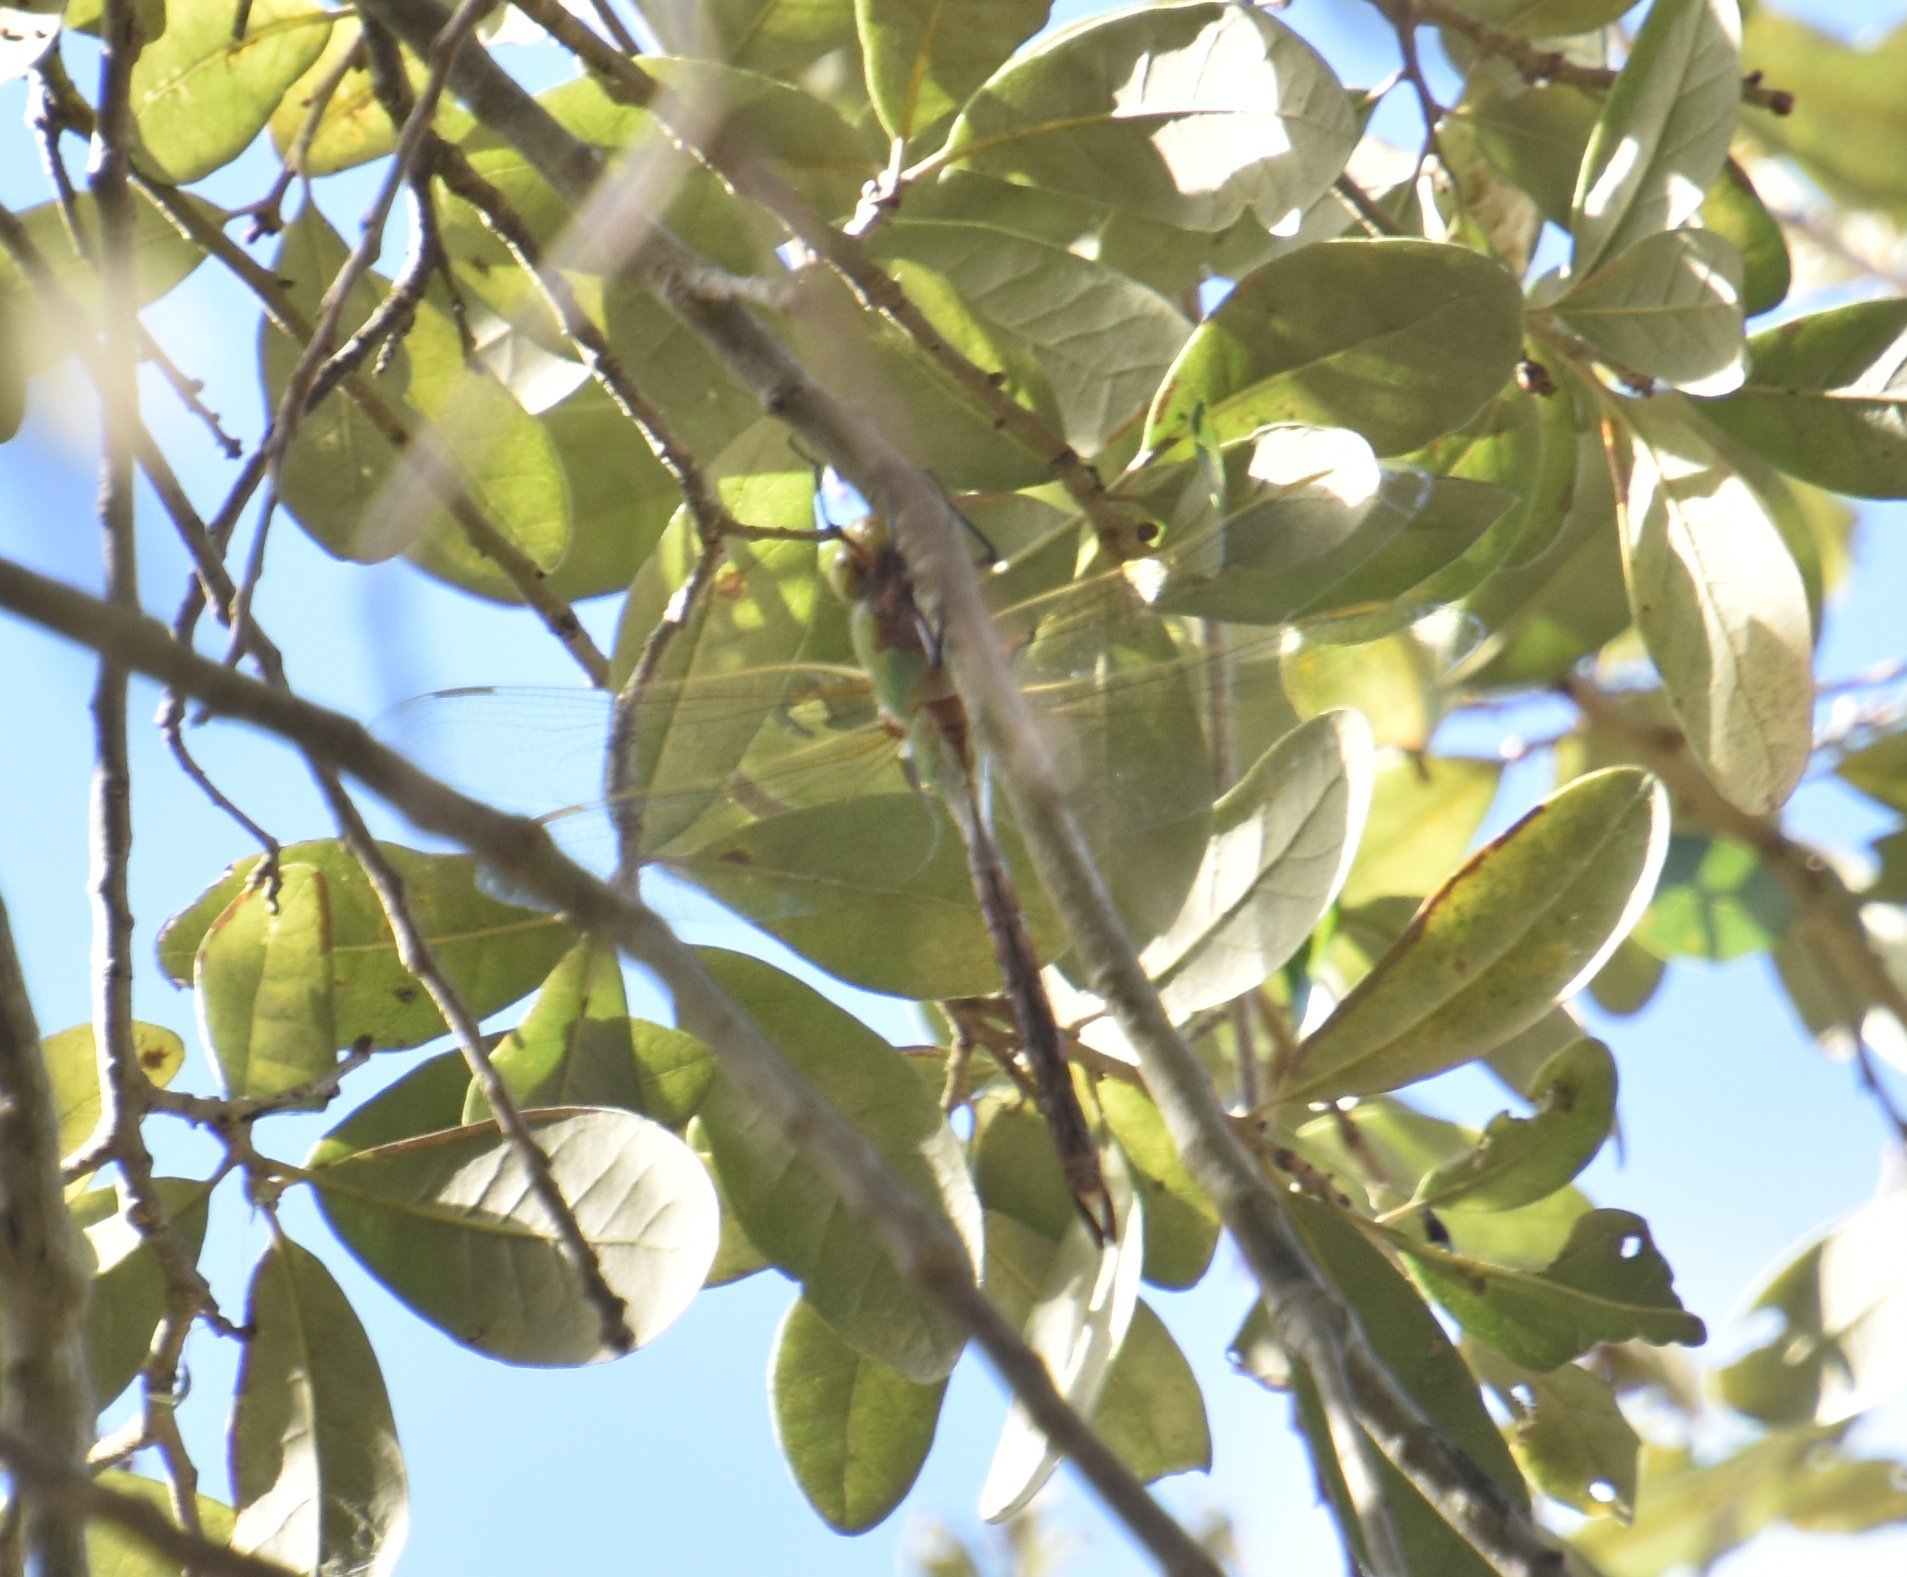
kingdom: Animalia
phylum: Arthropoda
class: Insecta
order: Odonata
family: Aeshnidae
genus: Anax
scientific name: Anax junius
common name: Common green darner
